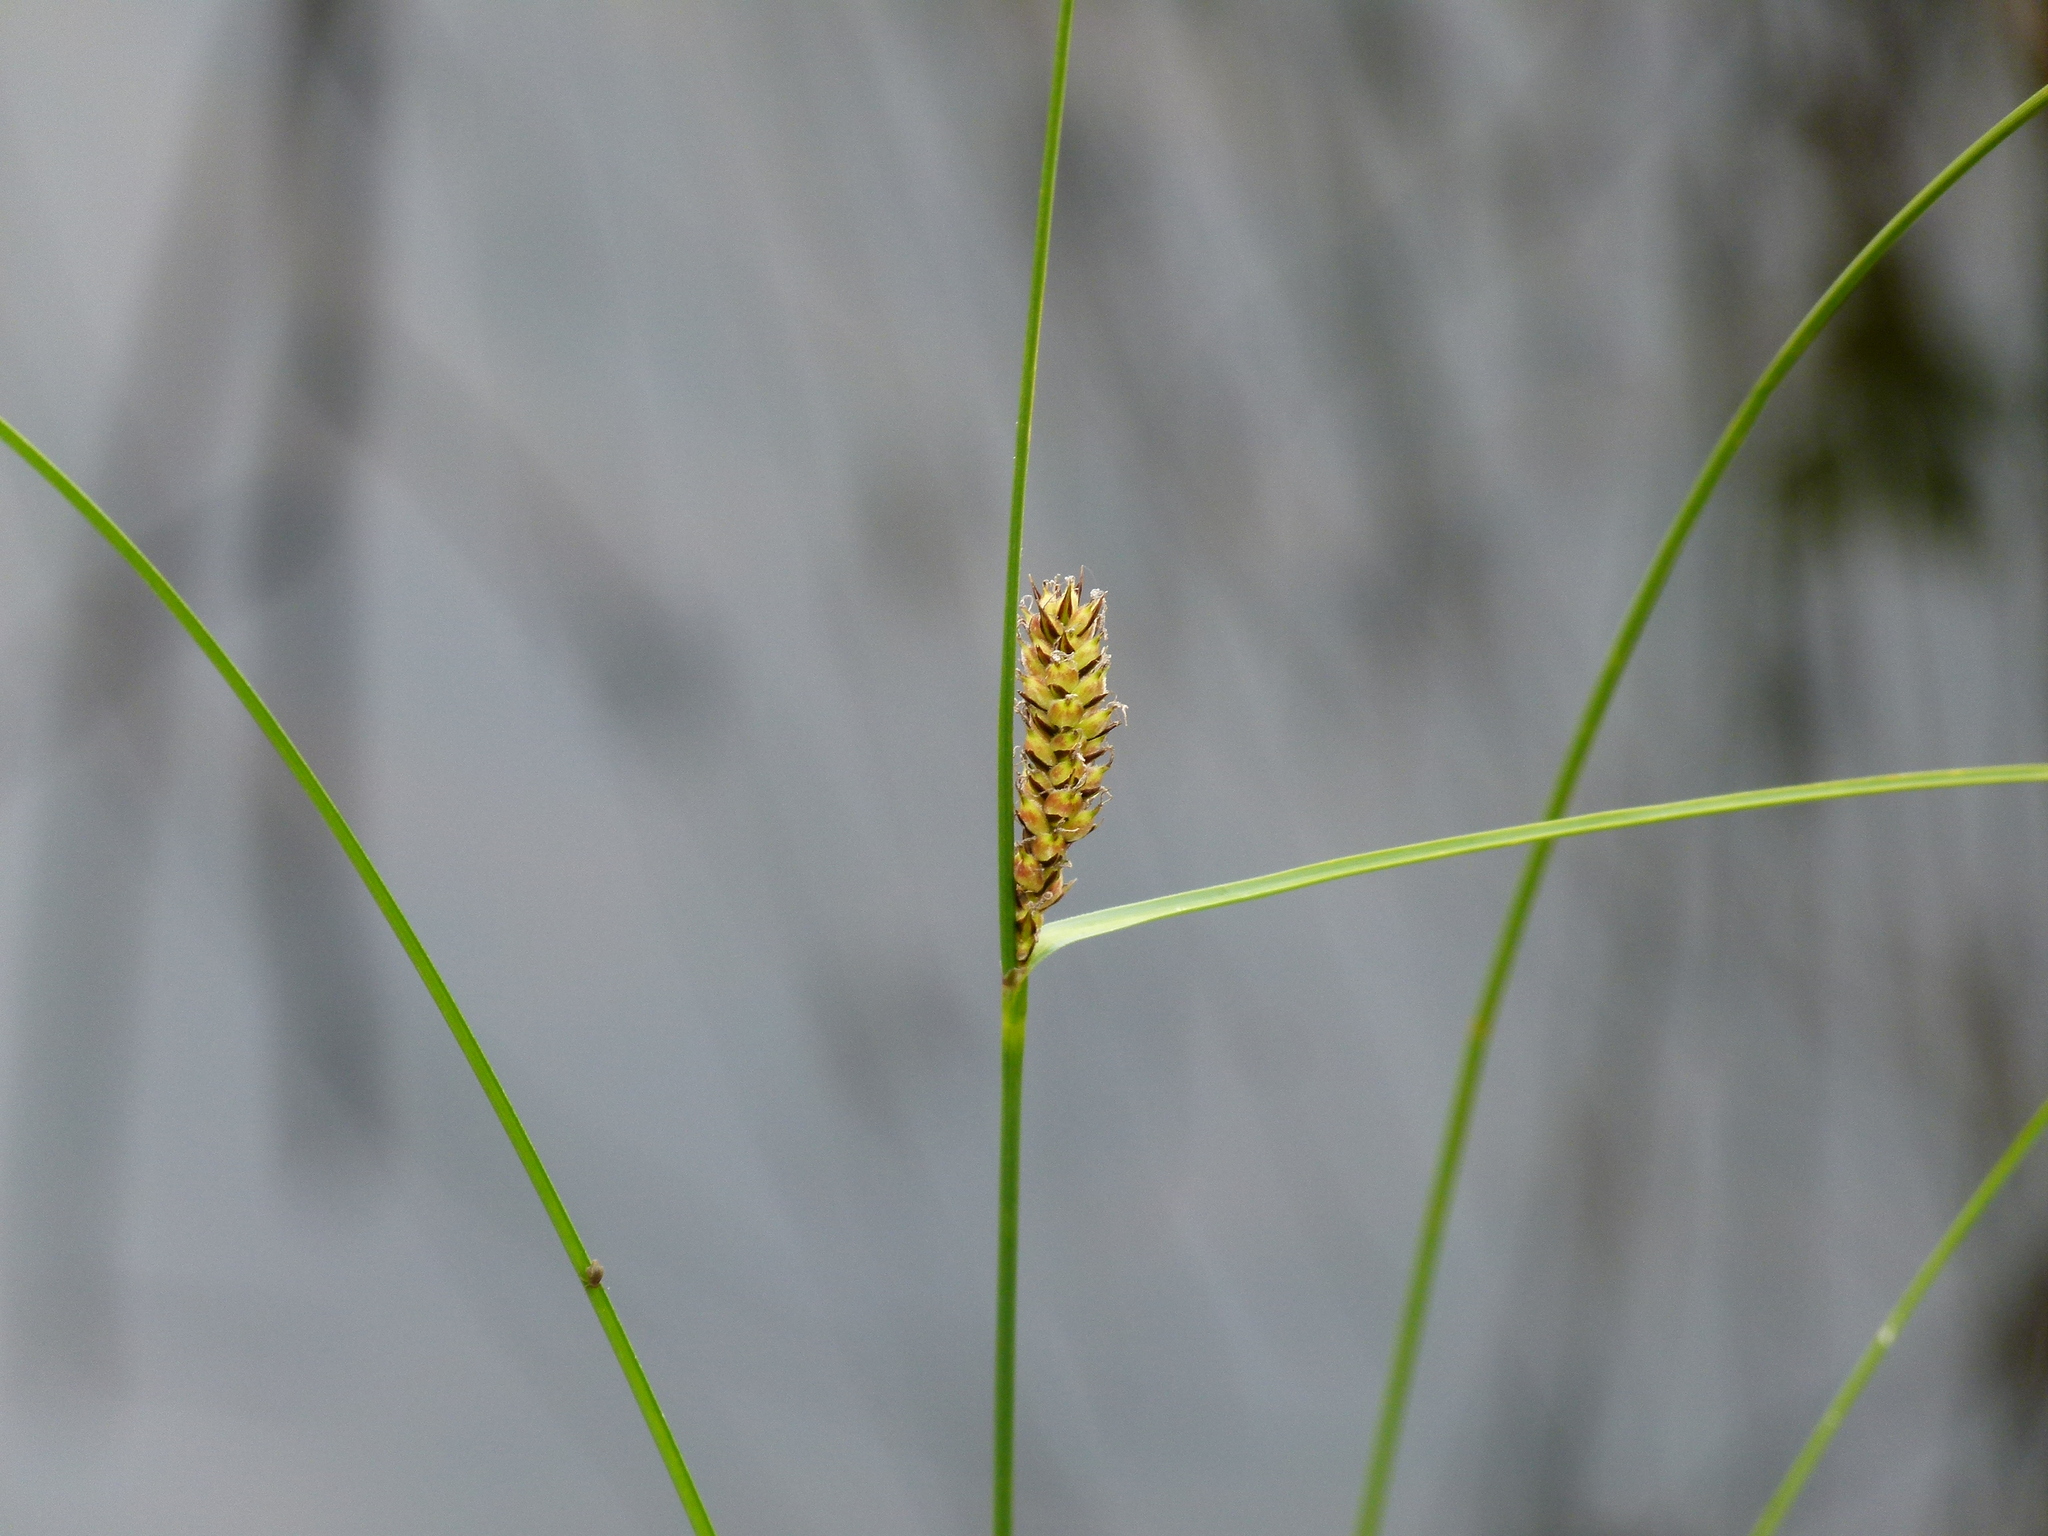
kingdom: Plantae
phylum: Tracheophyta
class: Liliopsida
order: Poales
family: Cyperaceae
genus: Carex
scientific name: Carex lasiocarpa
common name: Slender sedge
